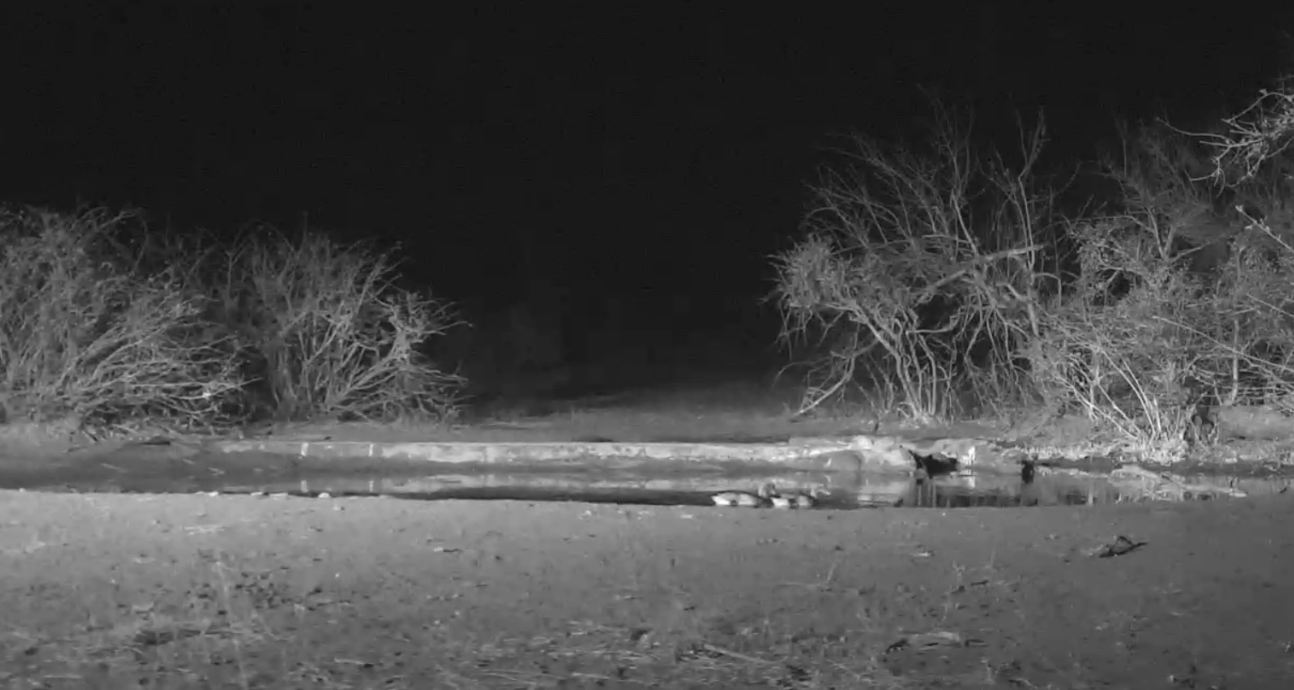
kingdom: Animalia
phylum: Chordata
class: Aves
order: Anseriformes
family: Anatidae
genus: Alopochen
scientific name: Alopochen aegyptiaca
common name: Egyptian goose
